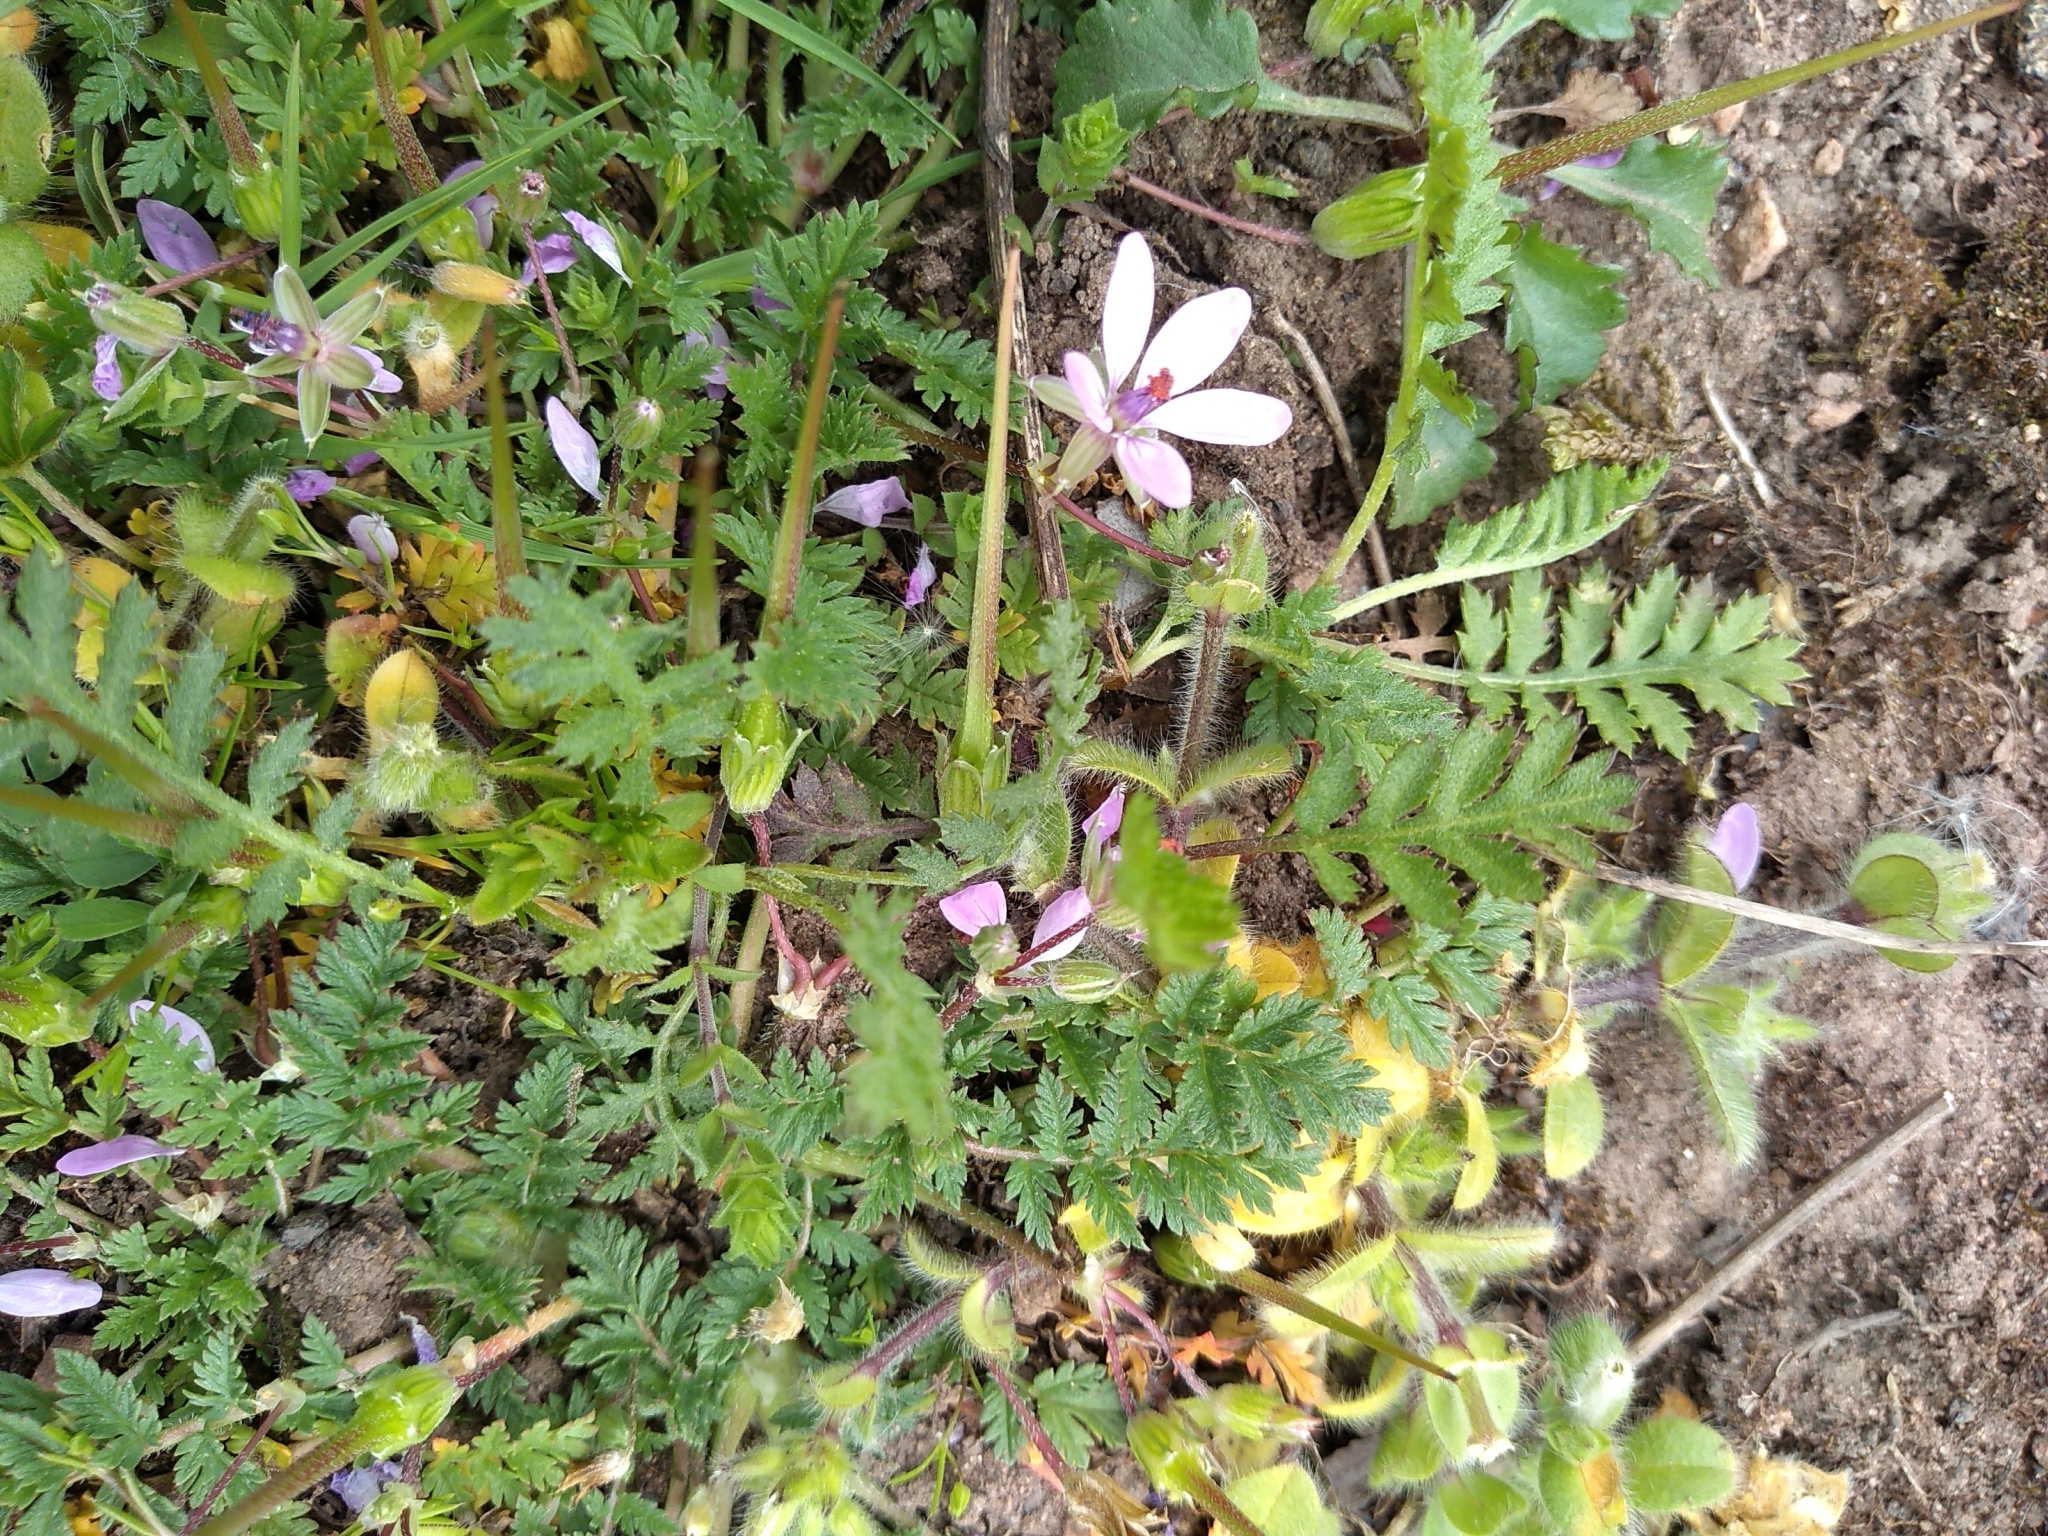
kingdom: Plantae
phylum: Tracheophyta
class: Magnoliopsida
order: Geraniales
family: Geraniaceae
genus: Erodium
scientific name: Erodium cicutarium
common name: Common stork's-bill
